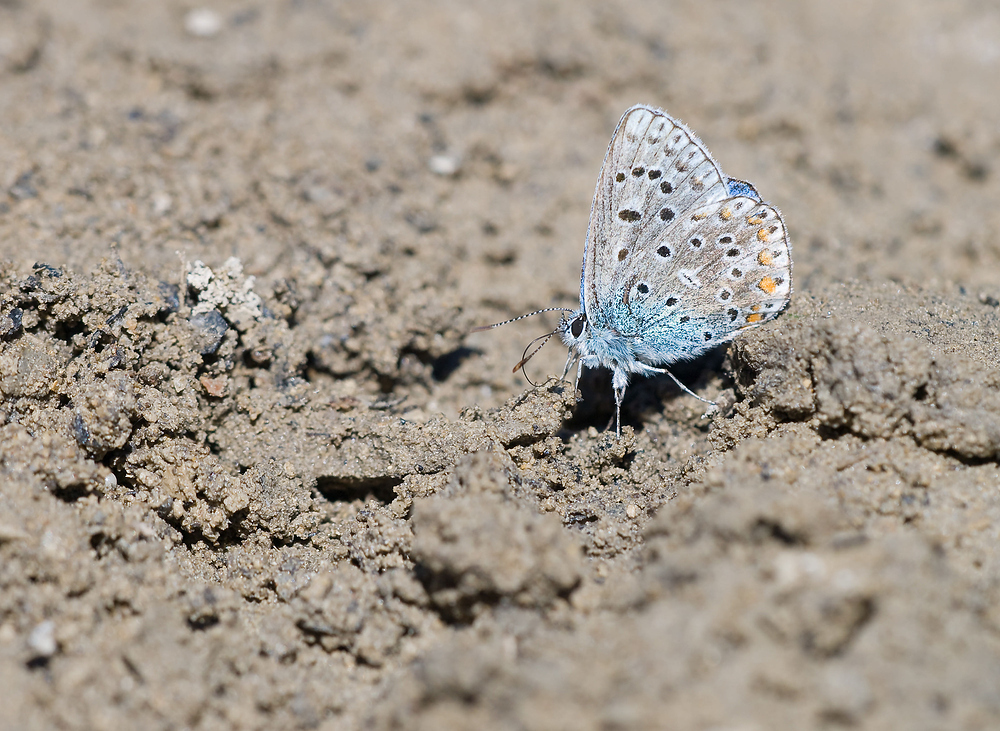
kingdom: Animalia
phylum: Arthropoda
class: Insecta
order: Lepidoptera
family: Lycaenidae
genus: Lysandra
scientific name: Lysandra bellargus
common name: Adonis blue
